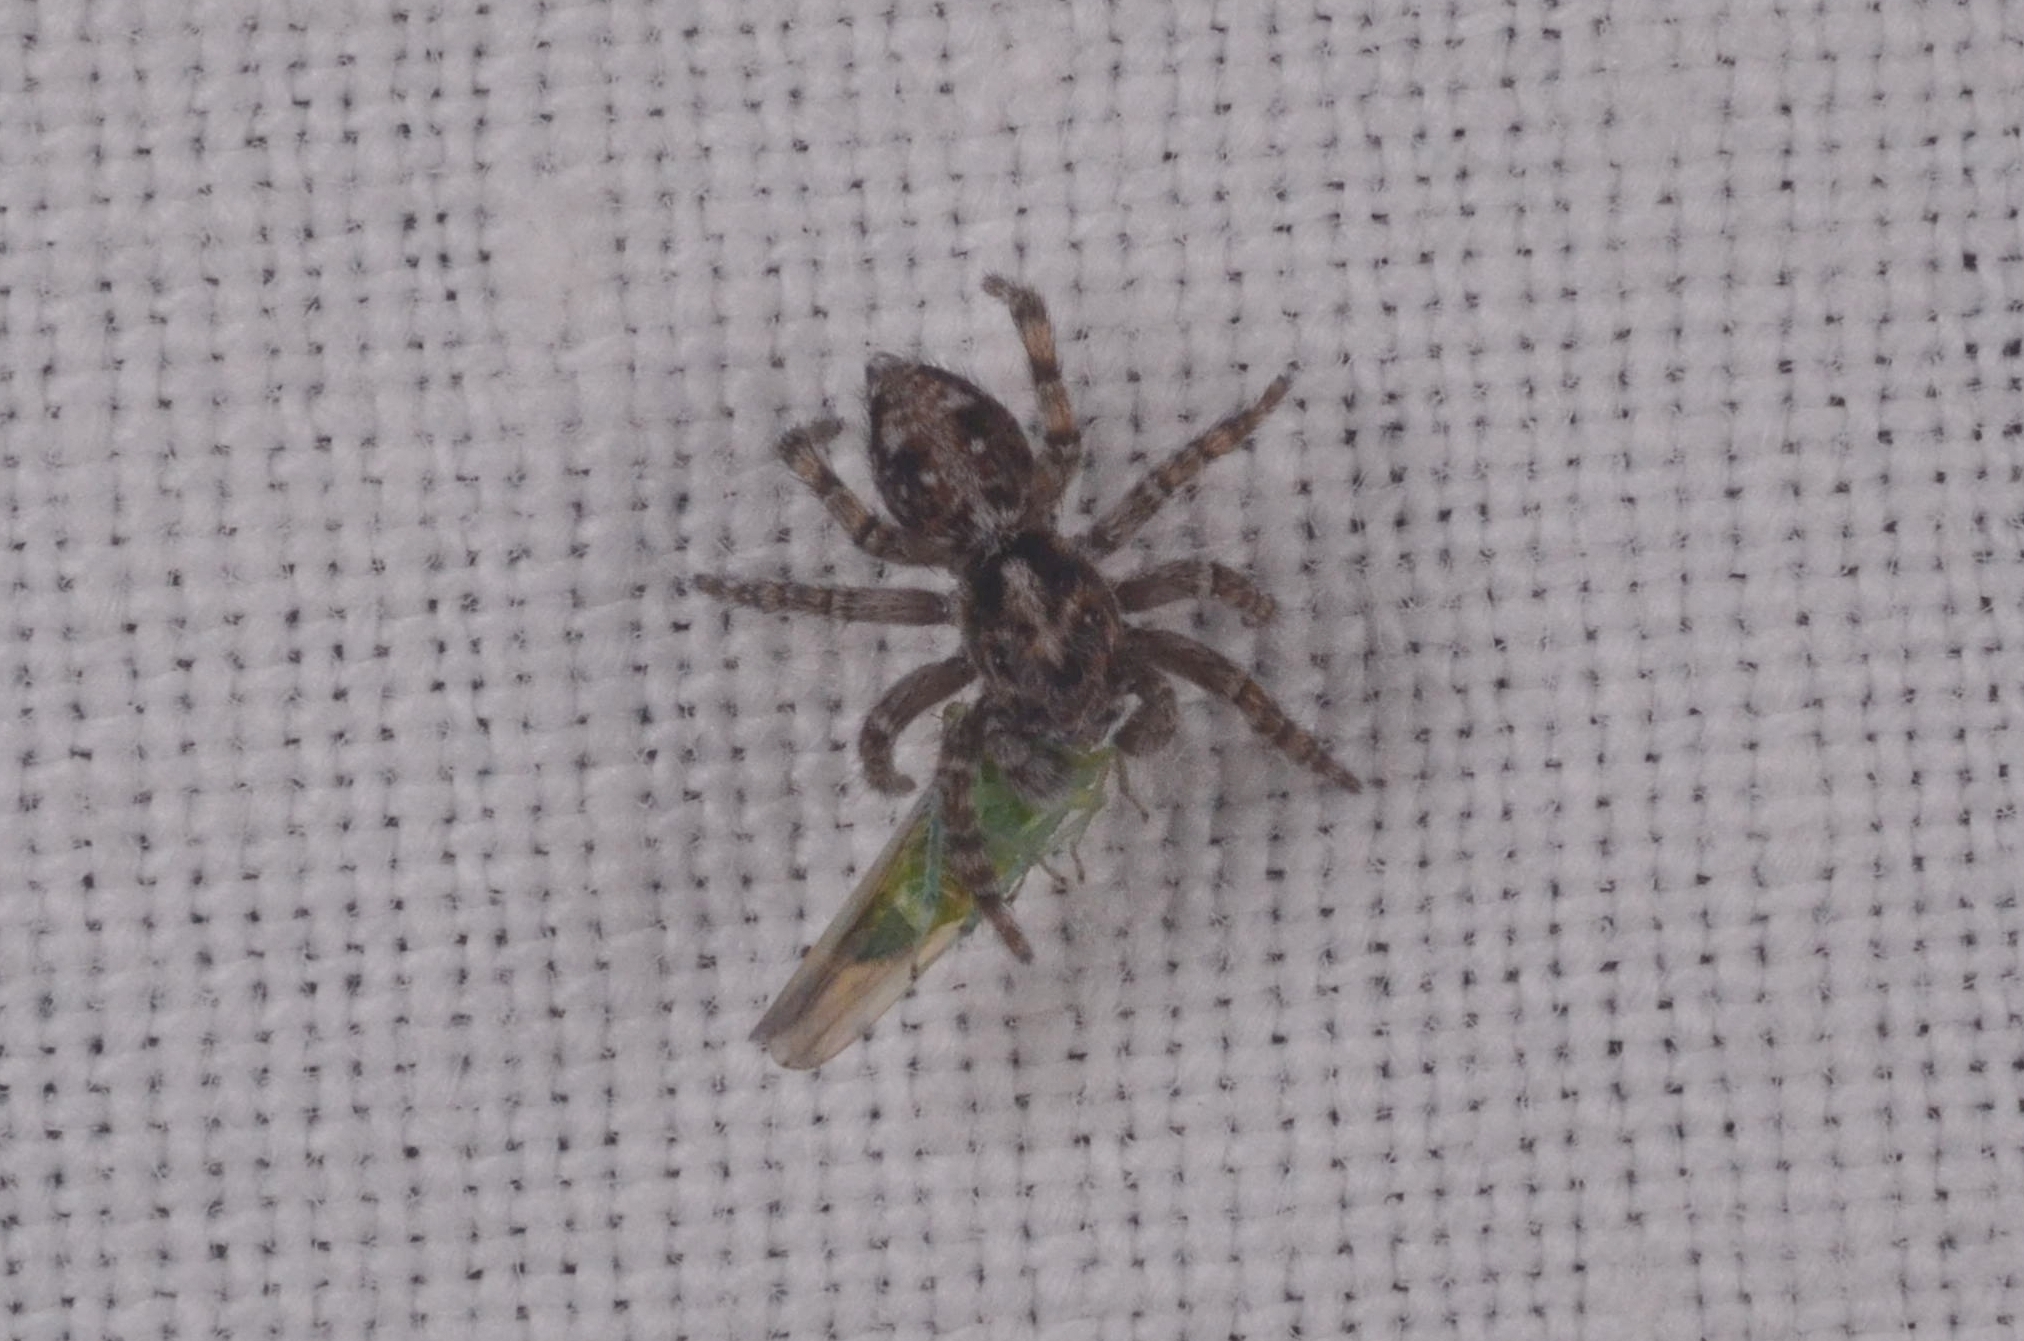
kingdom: Animalia
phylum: Arthropoda
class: Arachnida
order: Araneae
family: Salticidae
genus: Attulus
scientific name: Attulus terebratus
